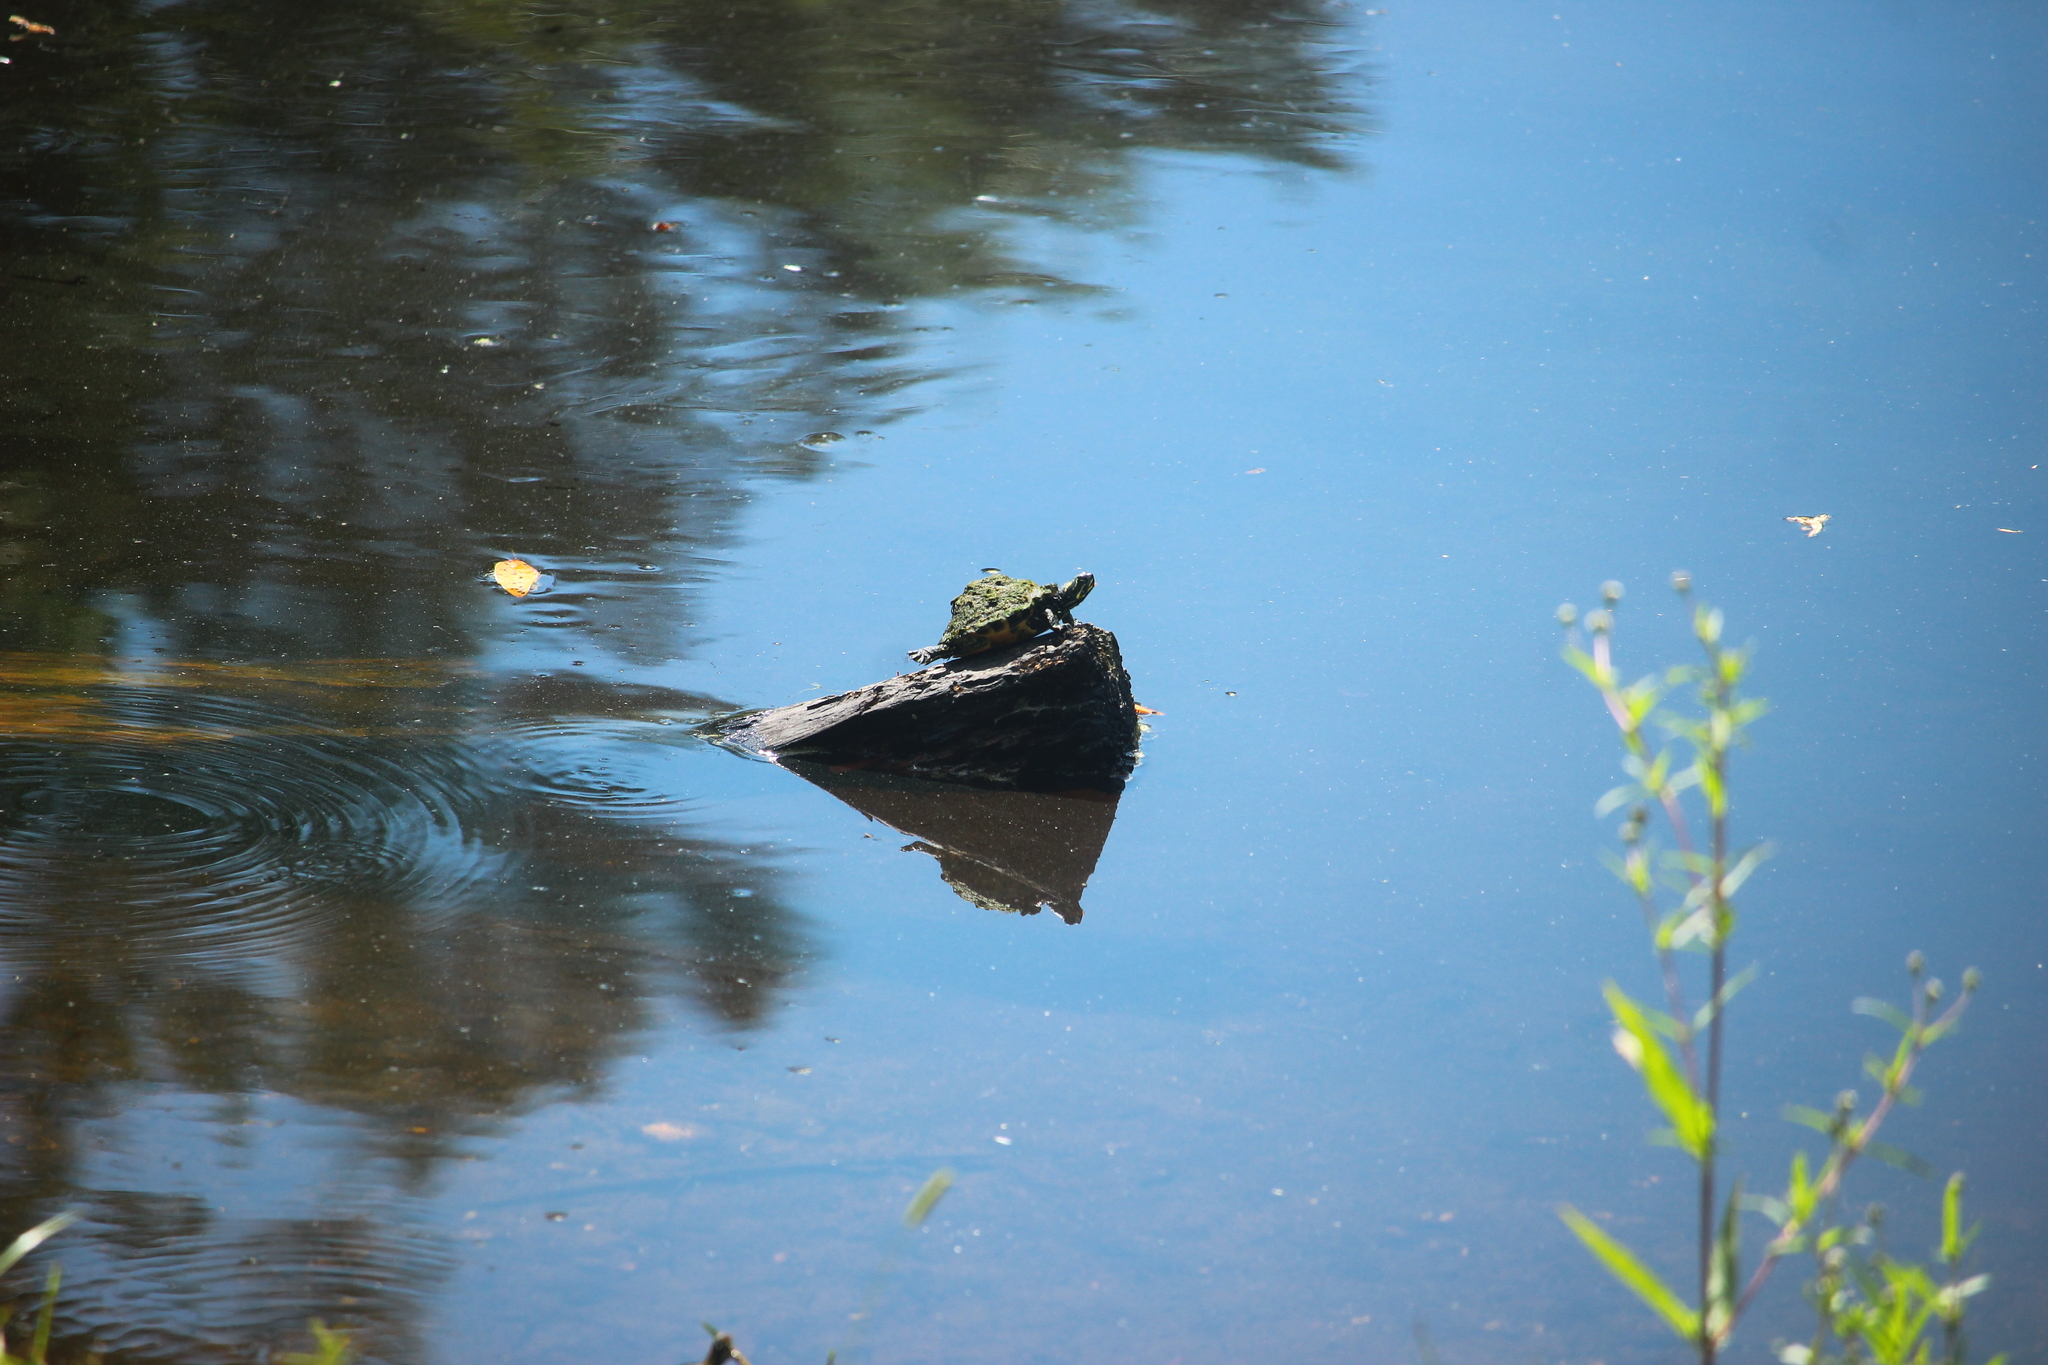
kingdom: Animalia
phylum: Chordata
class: Testudines
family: Emydidae
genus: Pseudemys
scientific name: Pseudemys peninsularis
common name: Peninsula cooter
